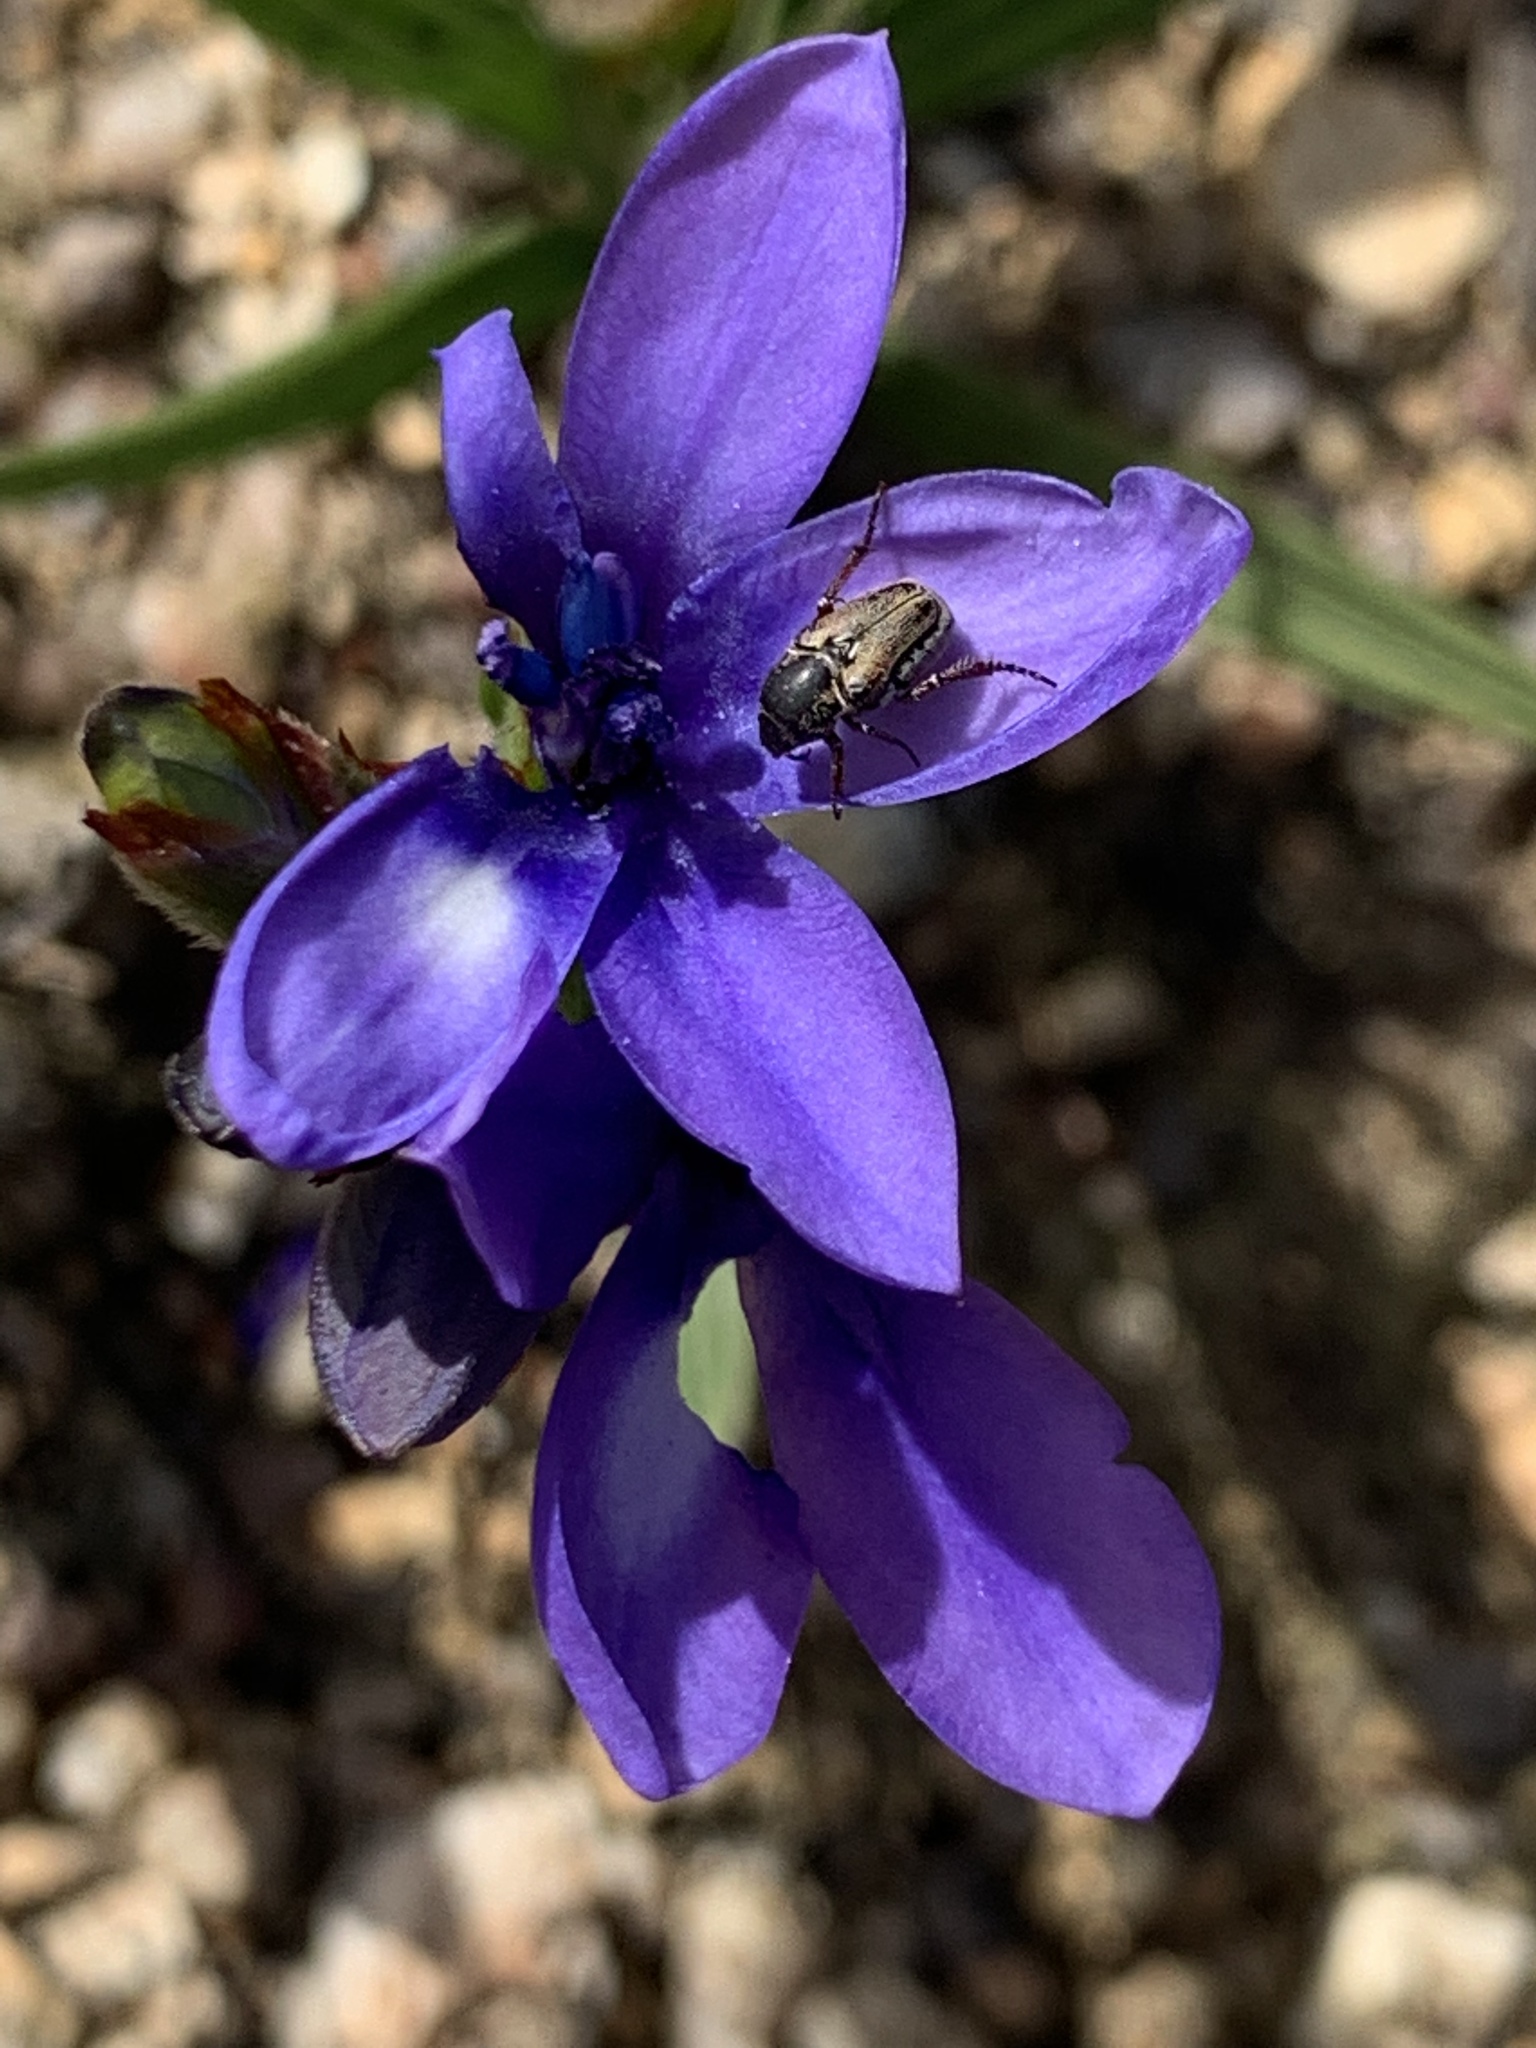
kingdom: Plantae
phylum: Tracheophyta
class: Liliopsida
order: Asparagales
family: Iridaceae
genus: Babiana
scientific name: Babiana angustifolia
